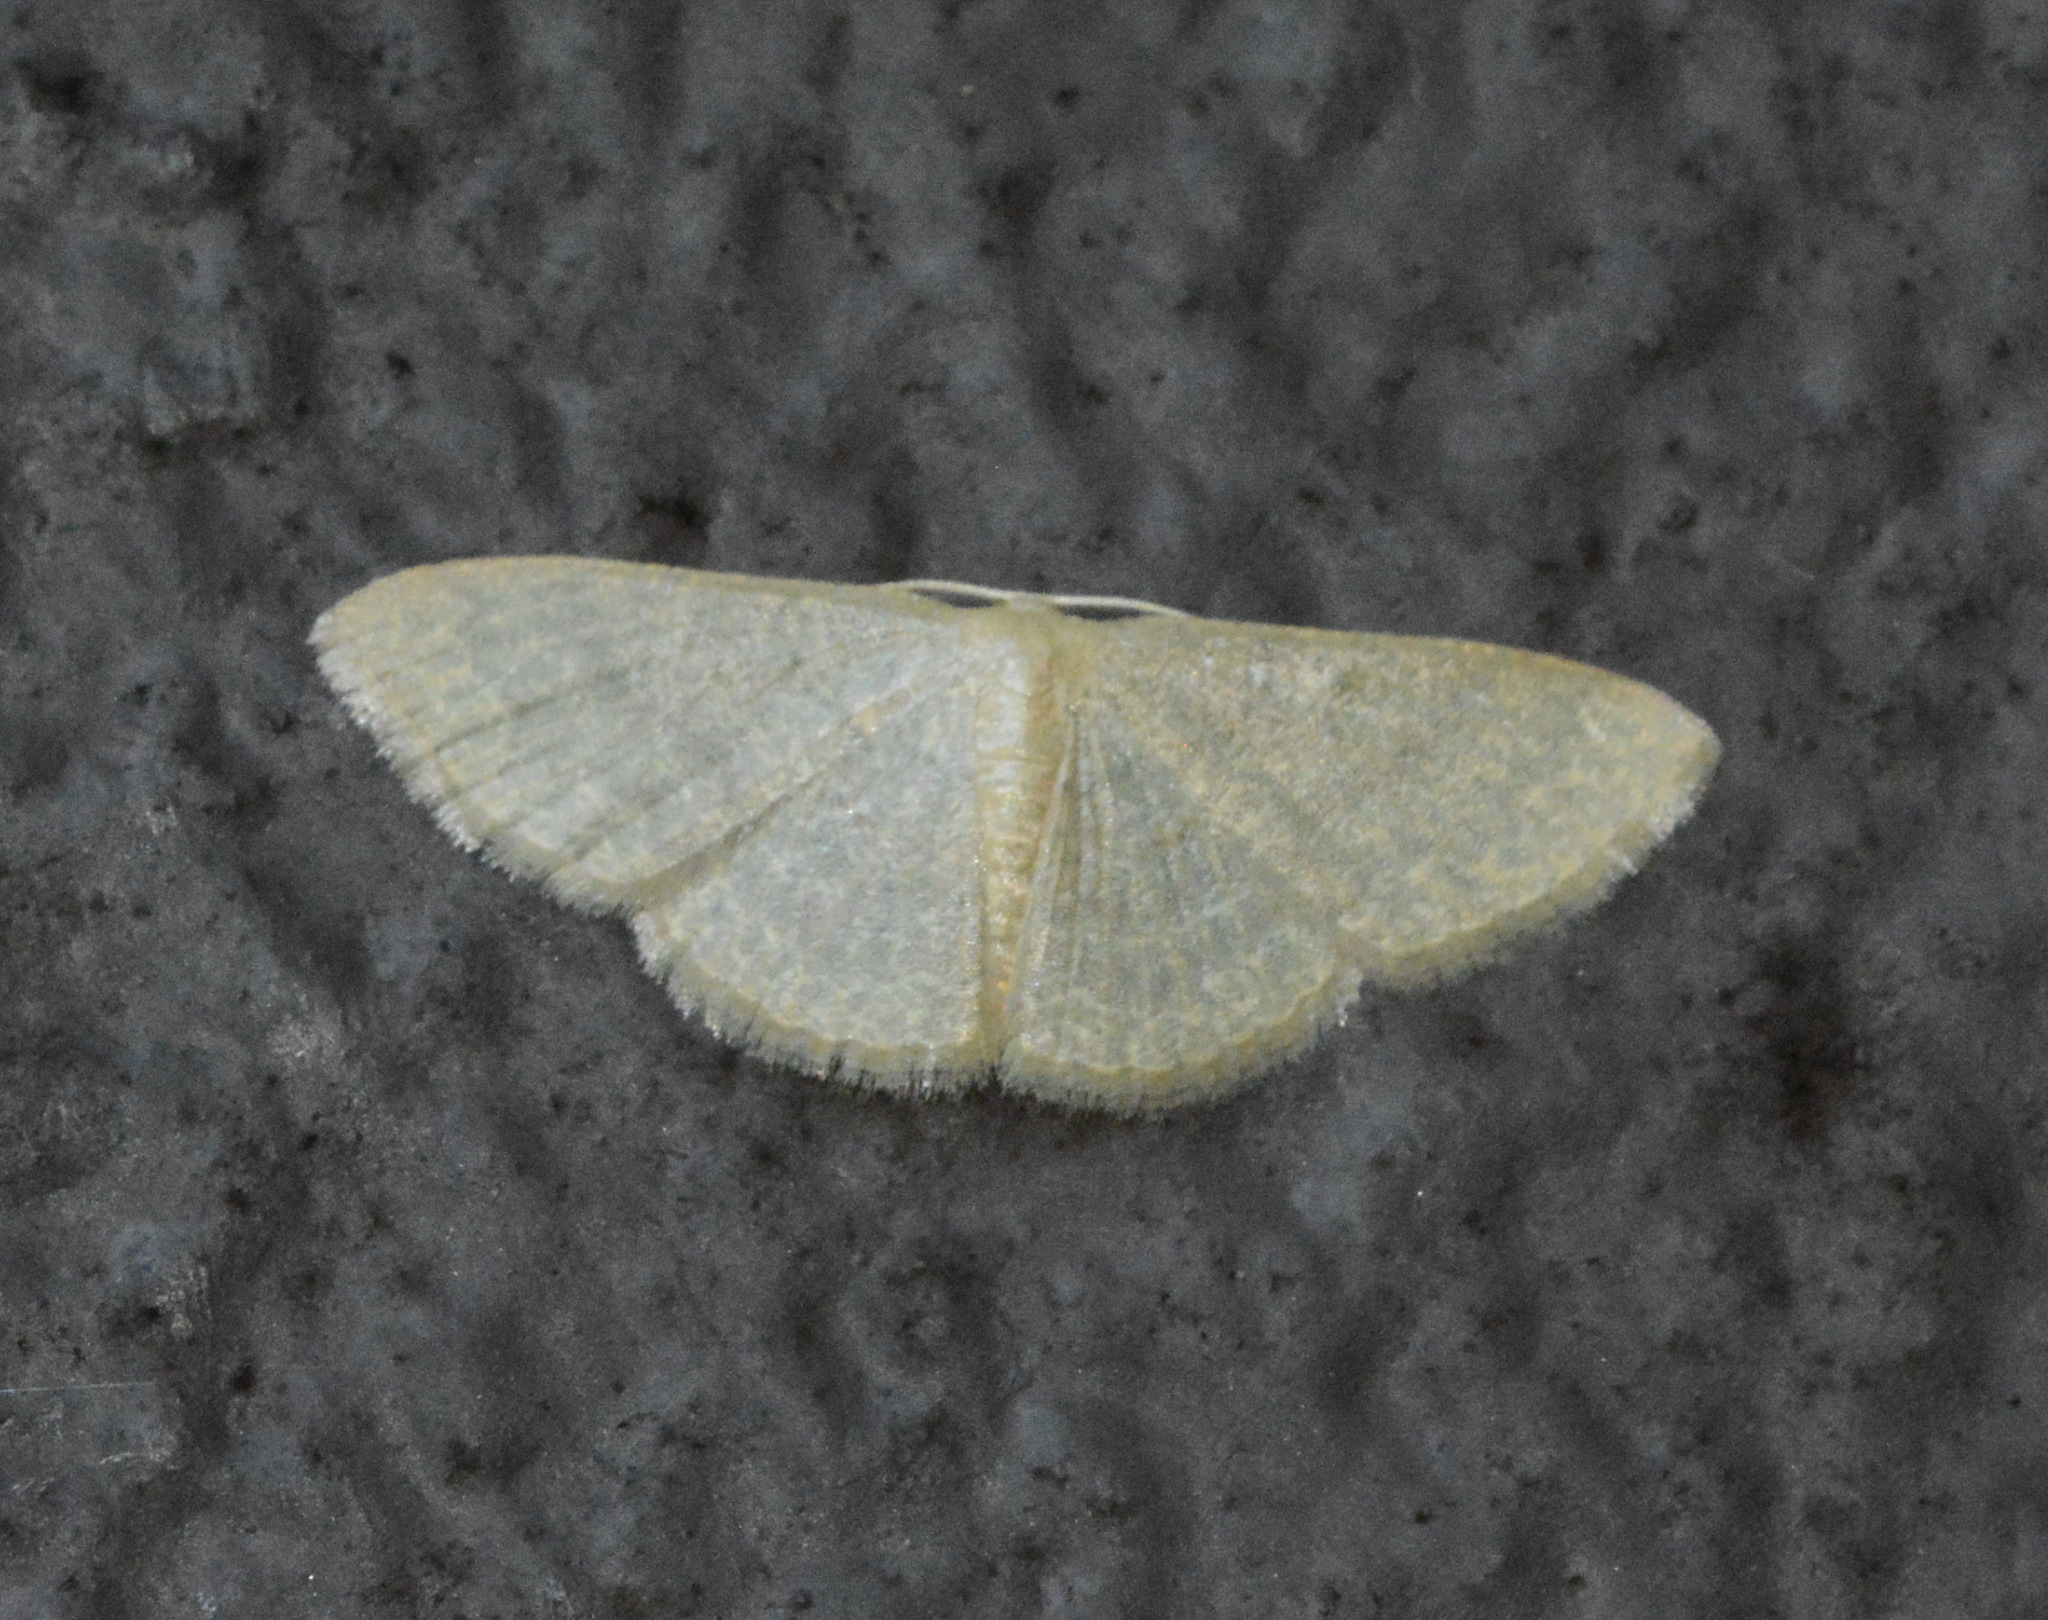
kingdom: Animalia
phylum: Arthropoda
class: Insecta
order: Lepidoptera
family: Geometridae
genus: Pleuroprucha
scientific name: Pleuroprucha insulsaria
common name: Common tan wave
